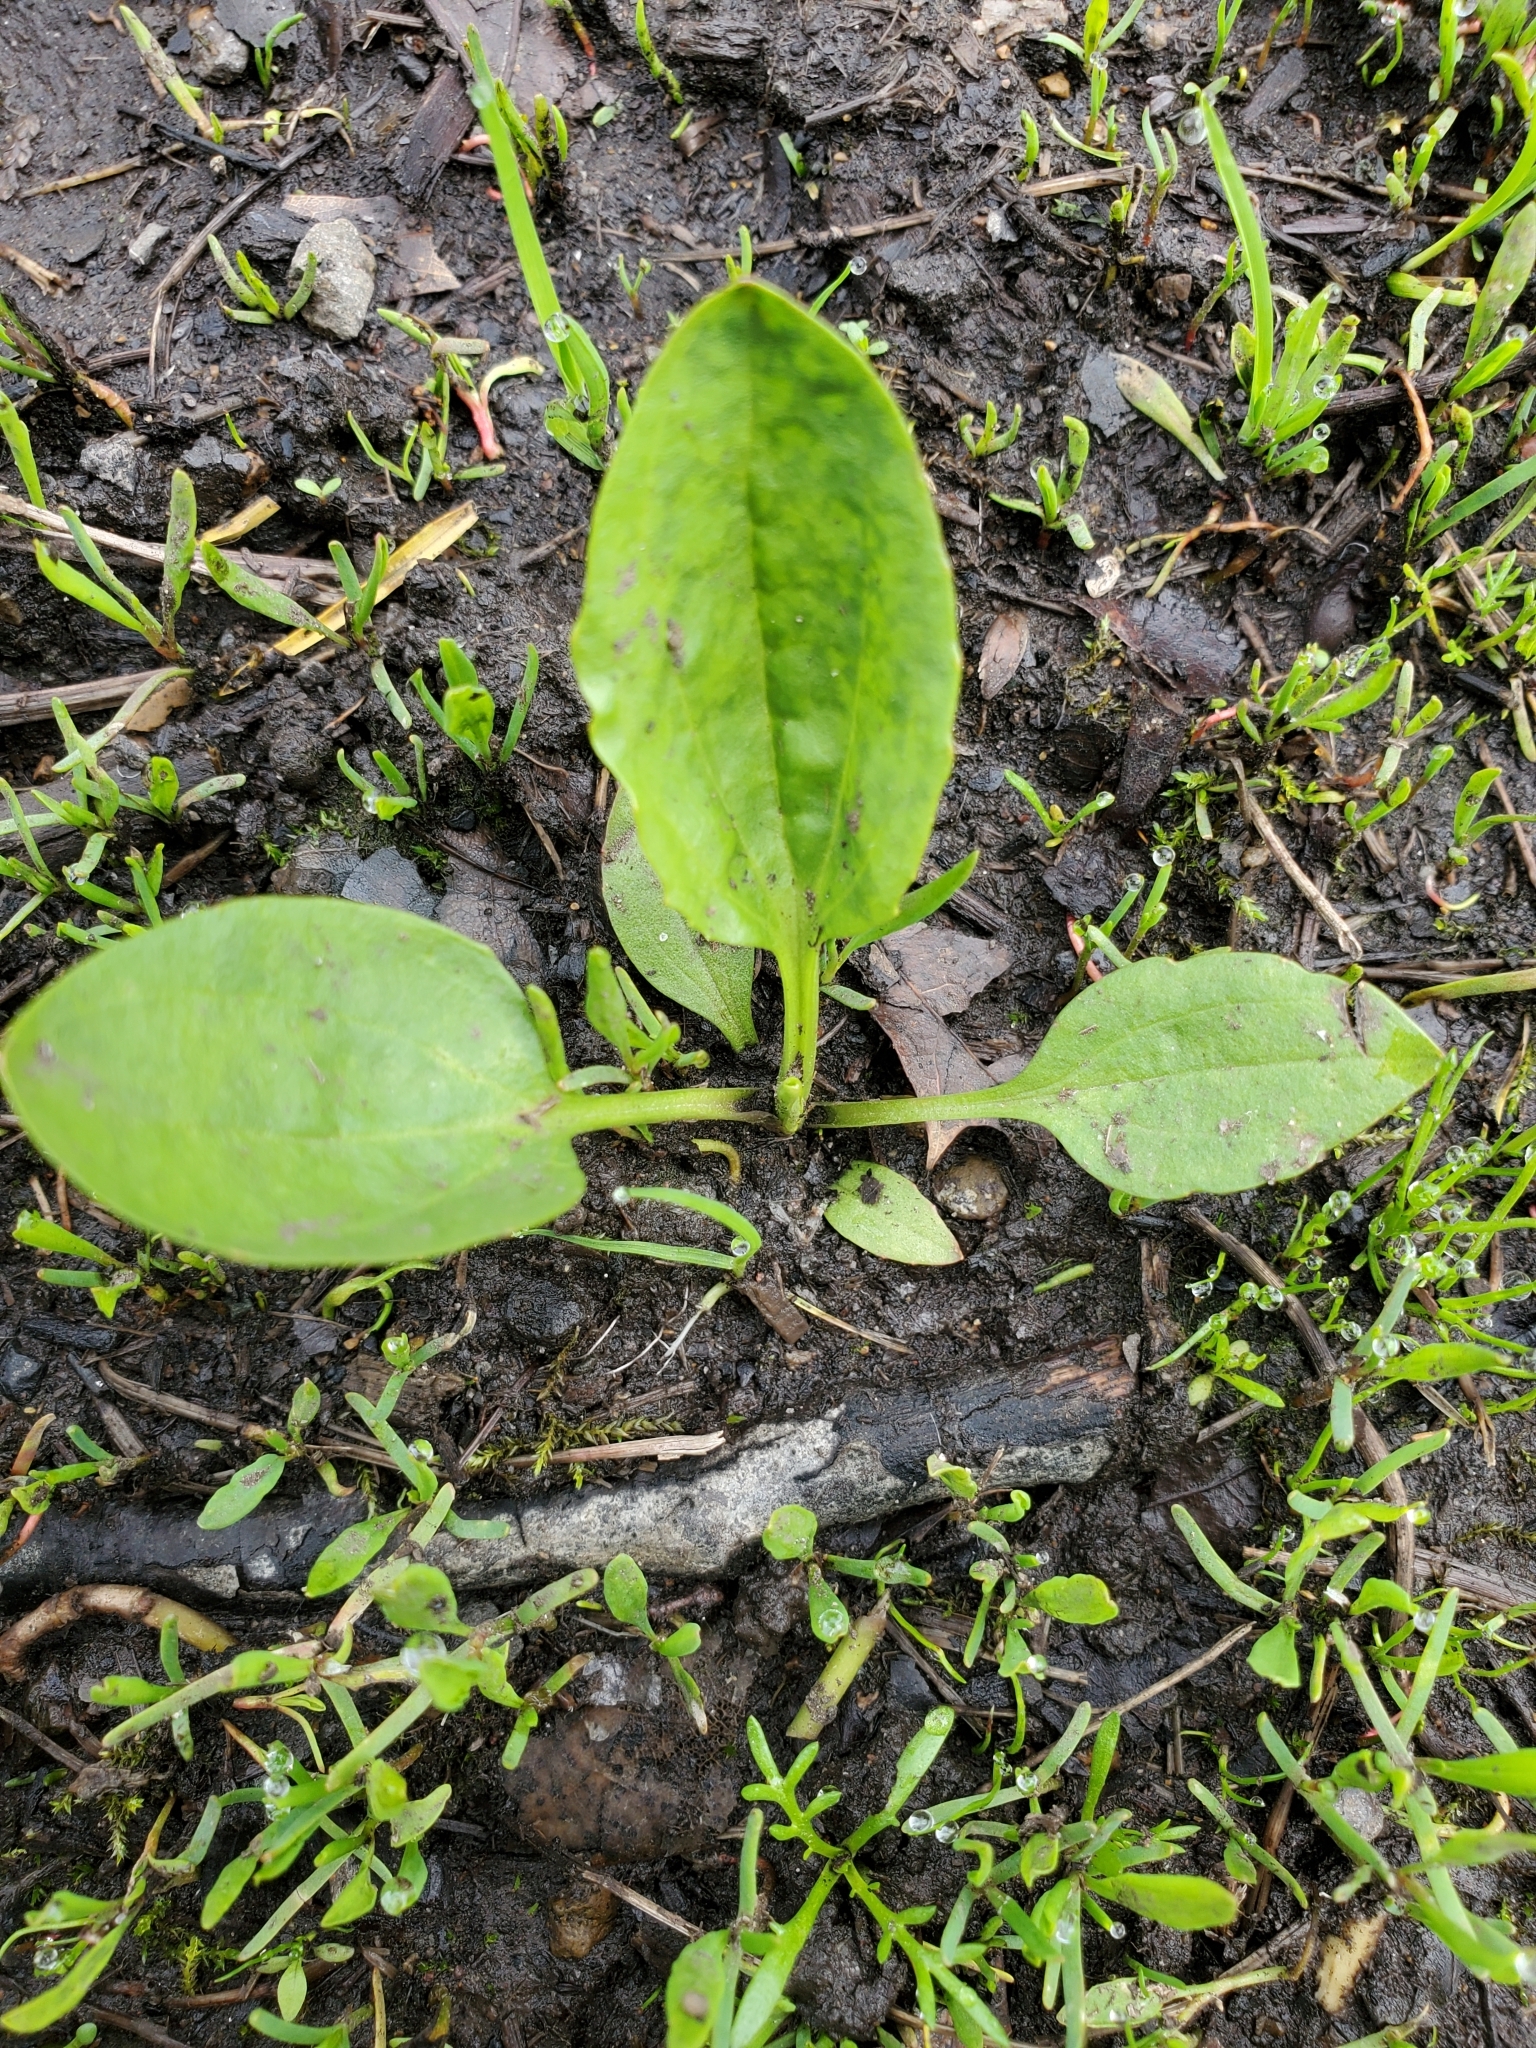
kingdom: Plantae
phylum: Tracheophyta
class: Magnoliopsida
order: Lamiales
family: Plantaginaceae
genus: Plantago
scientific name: Plantago major
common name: Common plantain
